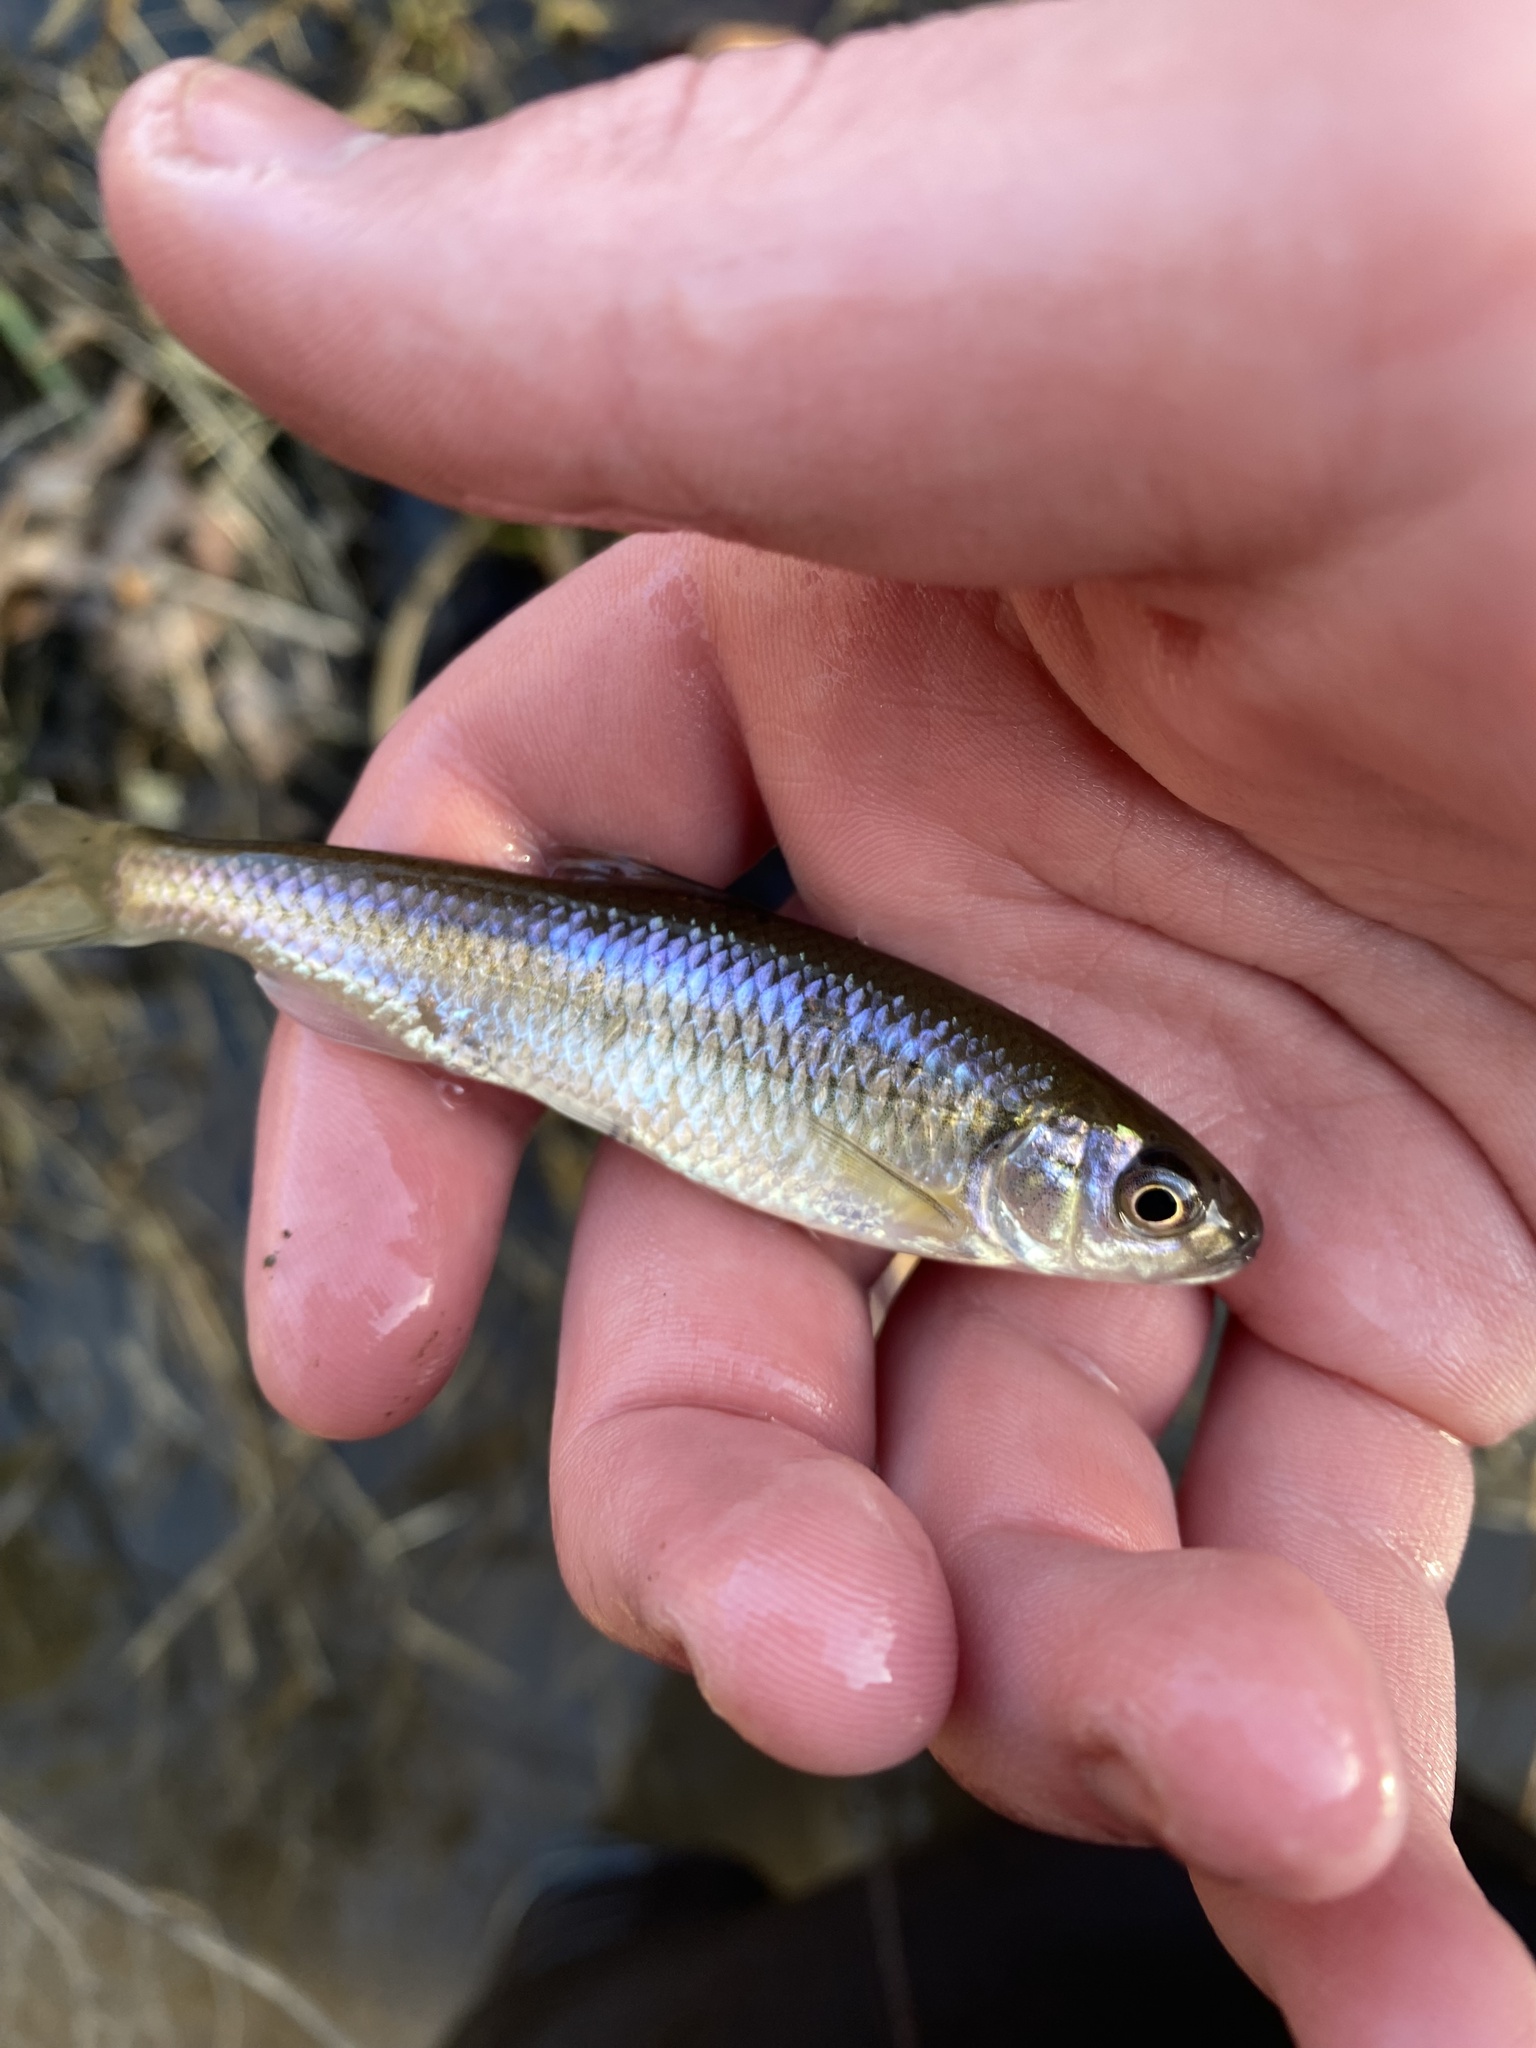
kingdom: Animalia
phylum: Chordata
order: Cypriniformes
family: Cyprinidae
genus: Luxilus
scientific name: Luxilus cornutus
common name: Common shiner
